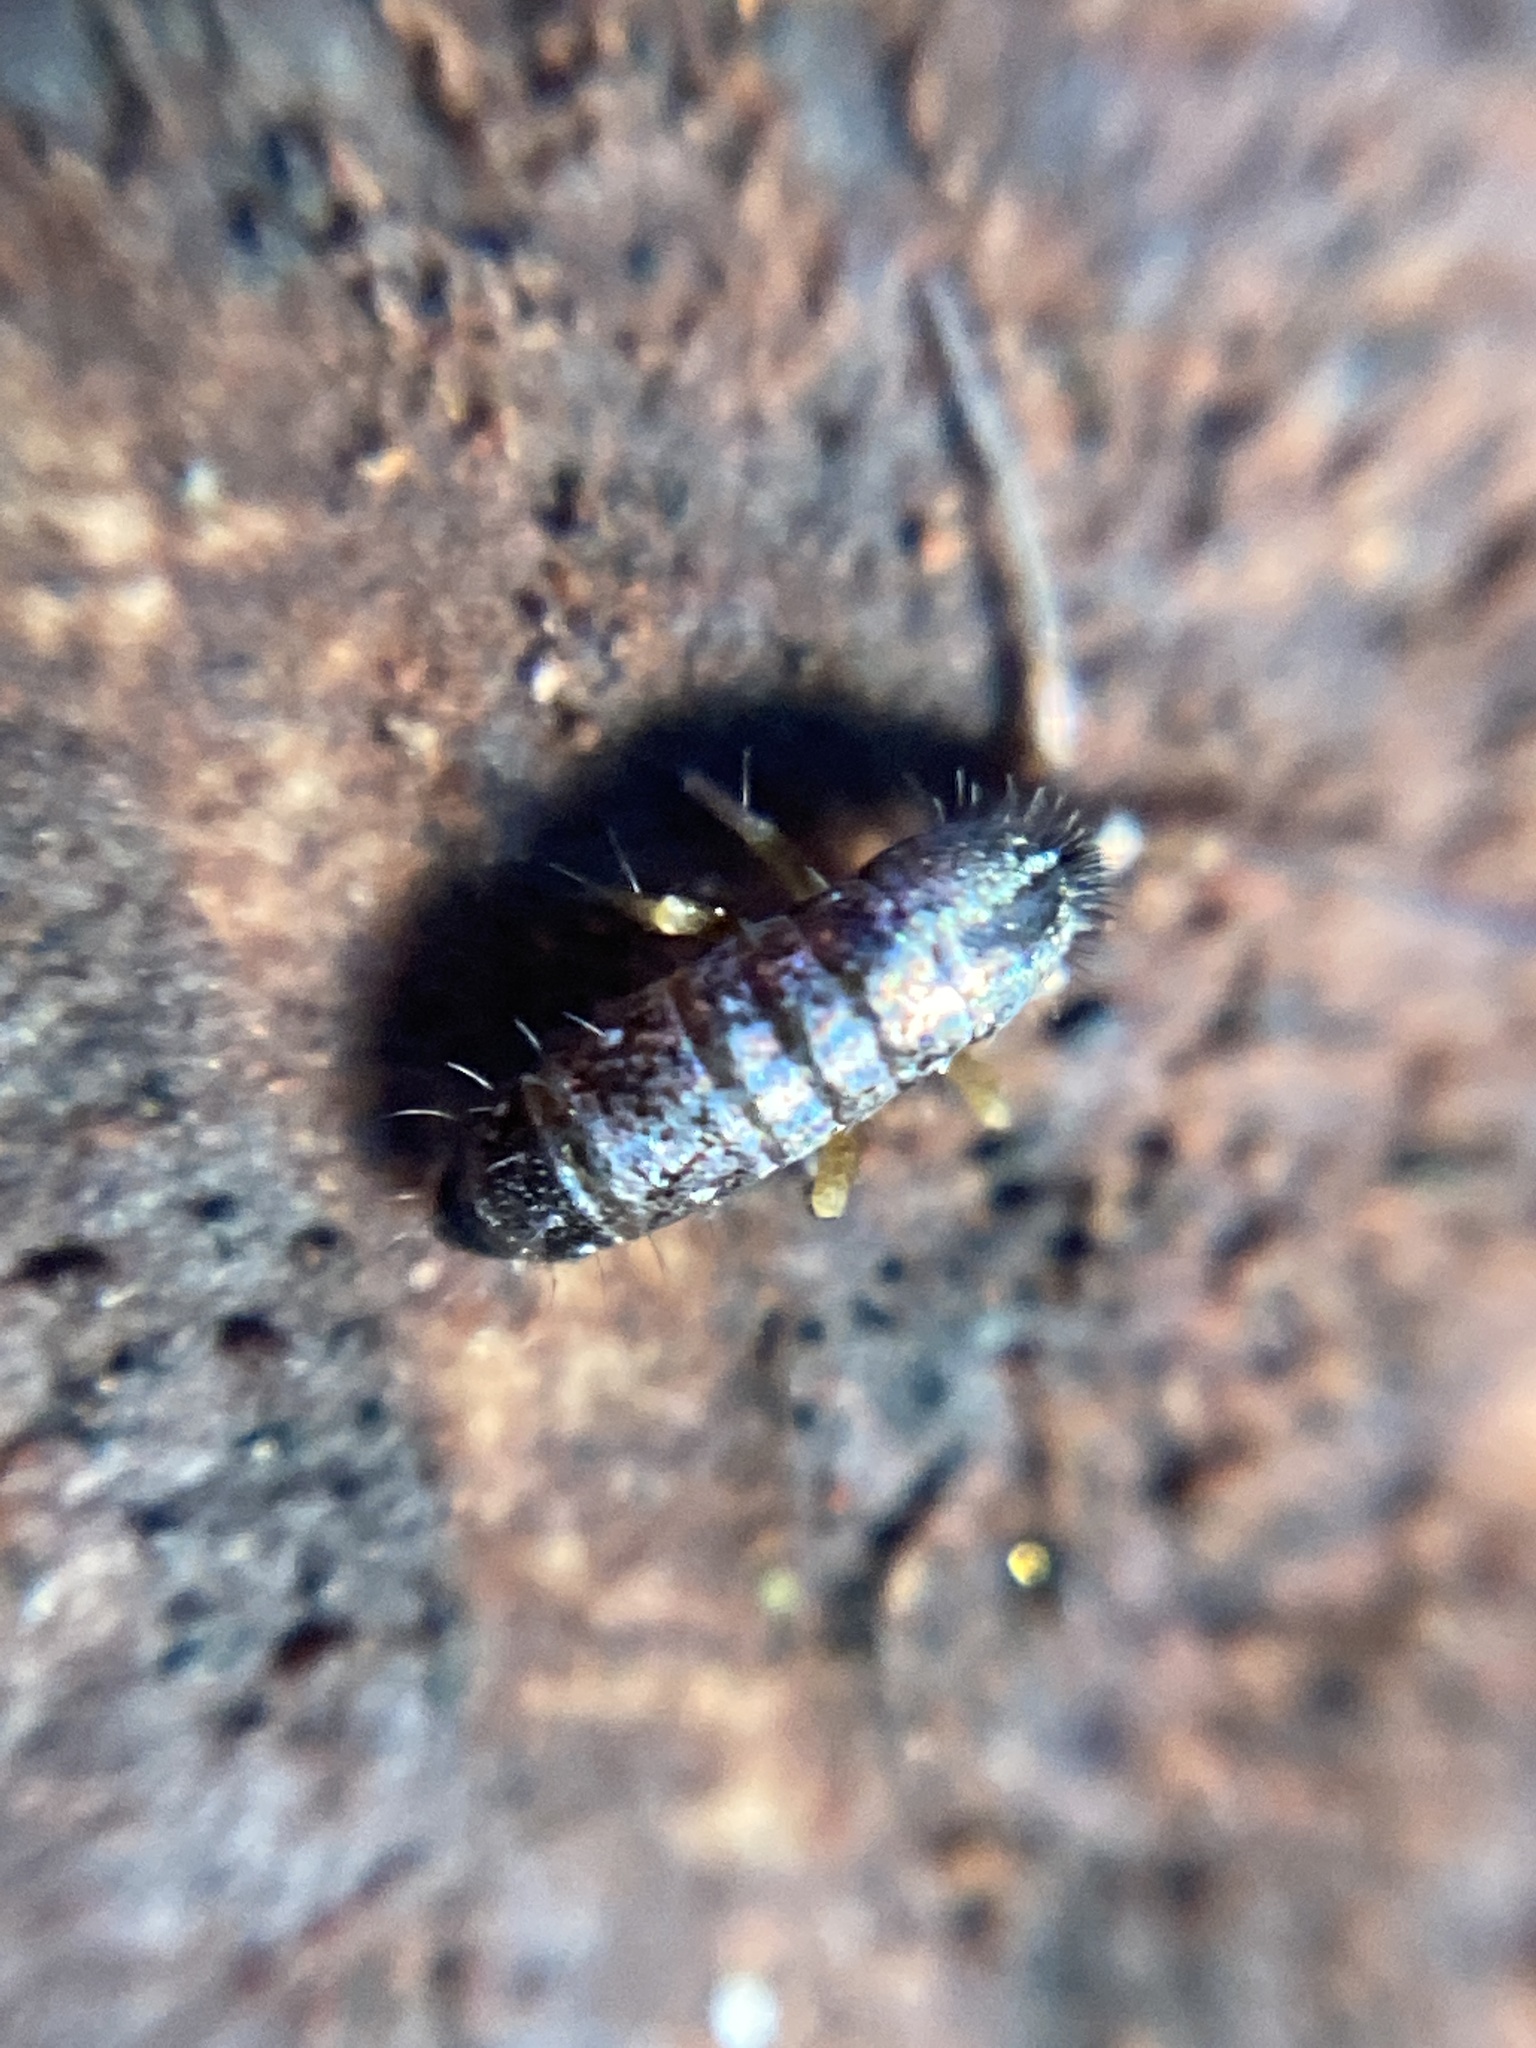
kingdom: Animalia
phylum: Arthropoda
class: Collembola
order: Entomobryomorpha
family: Tomoceridae
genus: Tomocerus
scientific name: Tomocerus vulgaris
